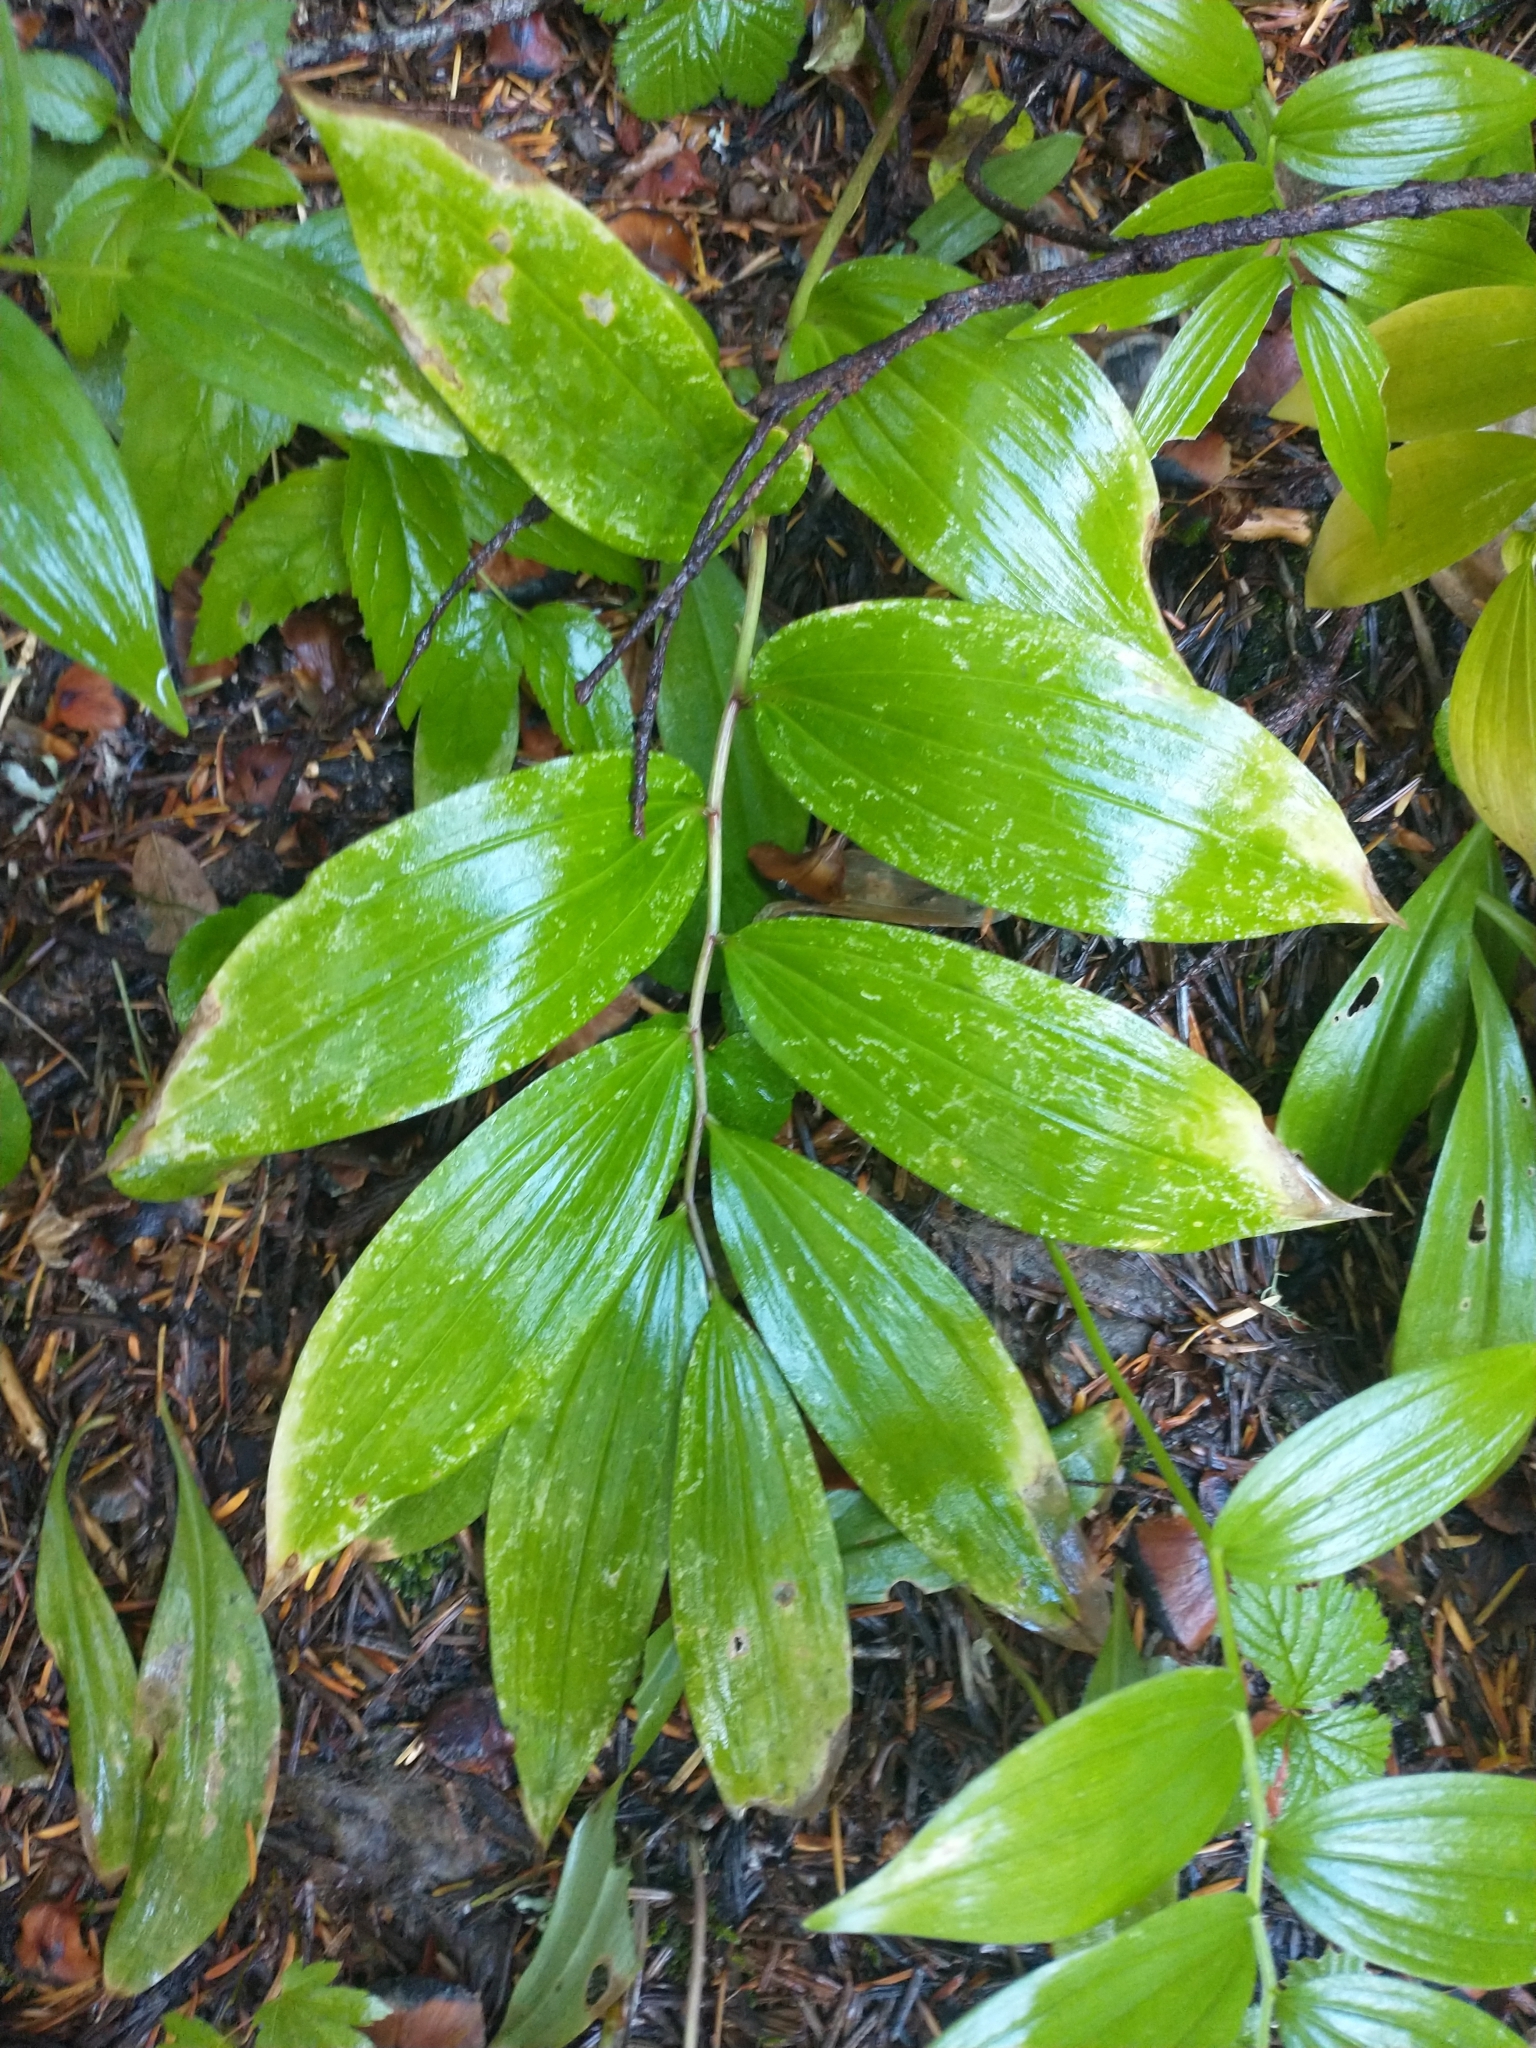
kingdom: Plantae
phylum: Tracheophyta
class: Liliopsida
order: Asparagales
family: Asparagaceae
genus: Maianthemum
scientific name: Maianthemum racemosum
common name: False spikenard
